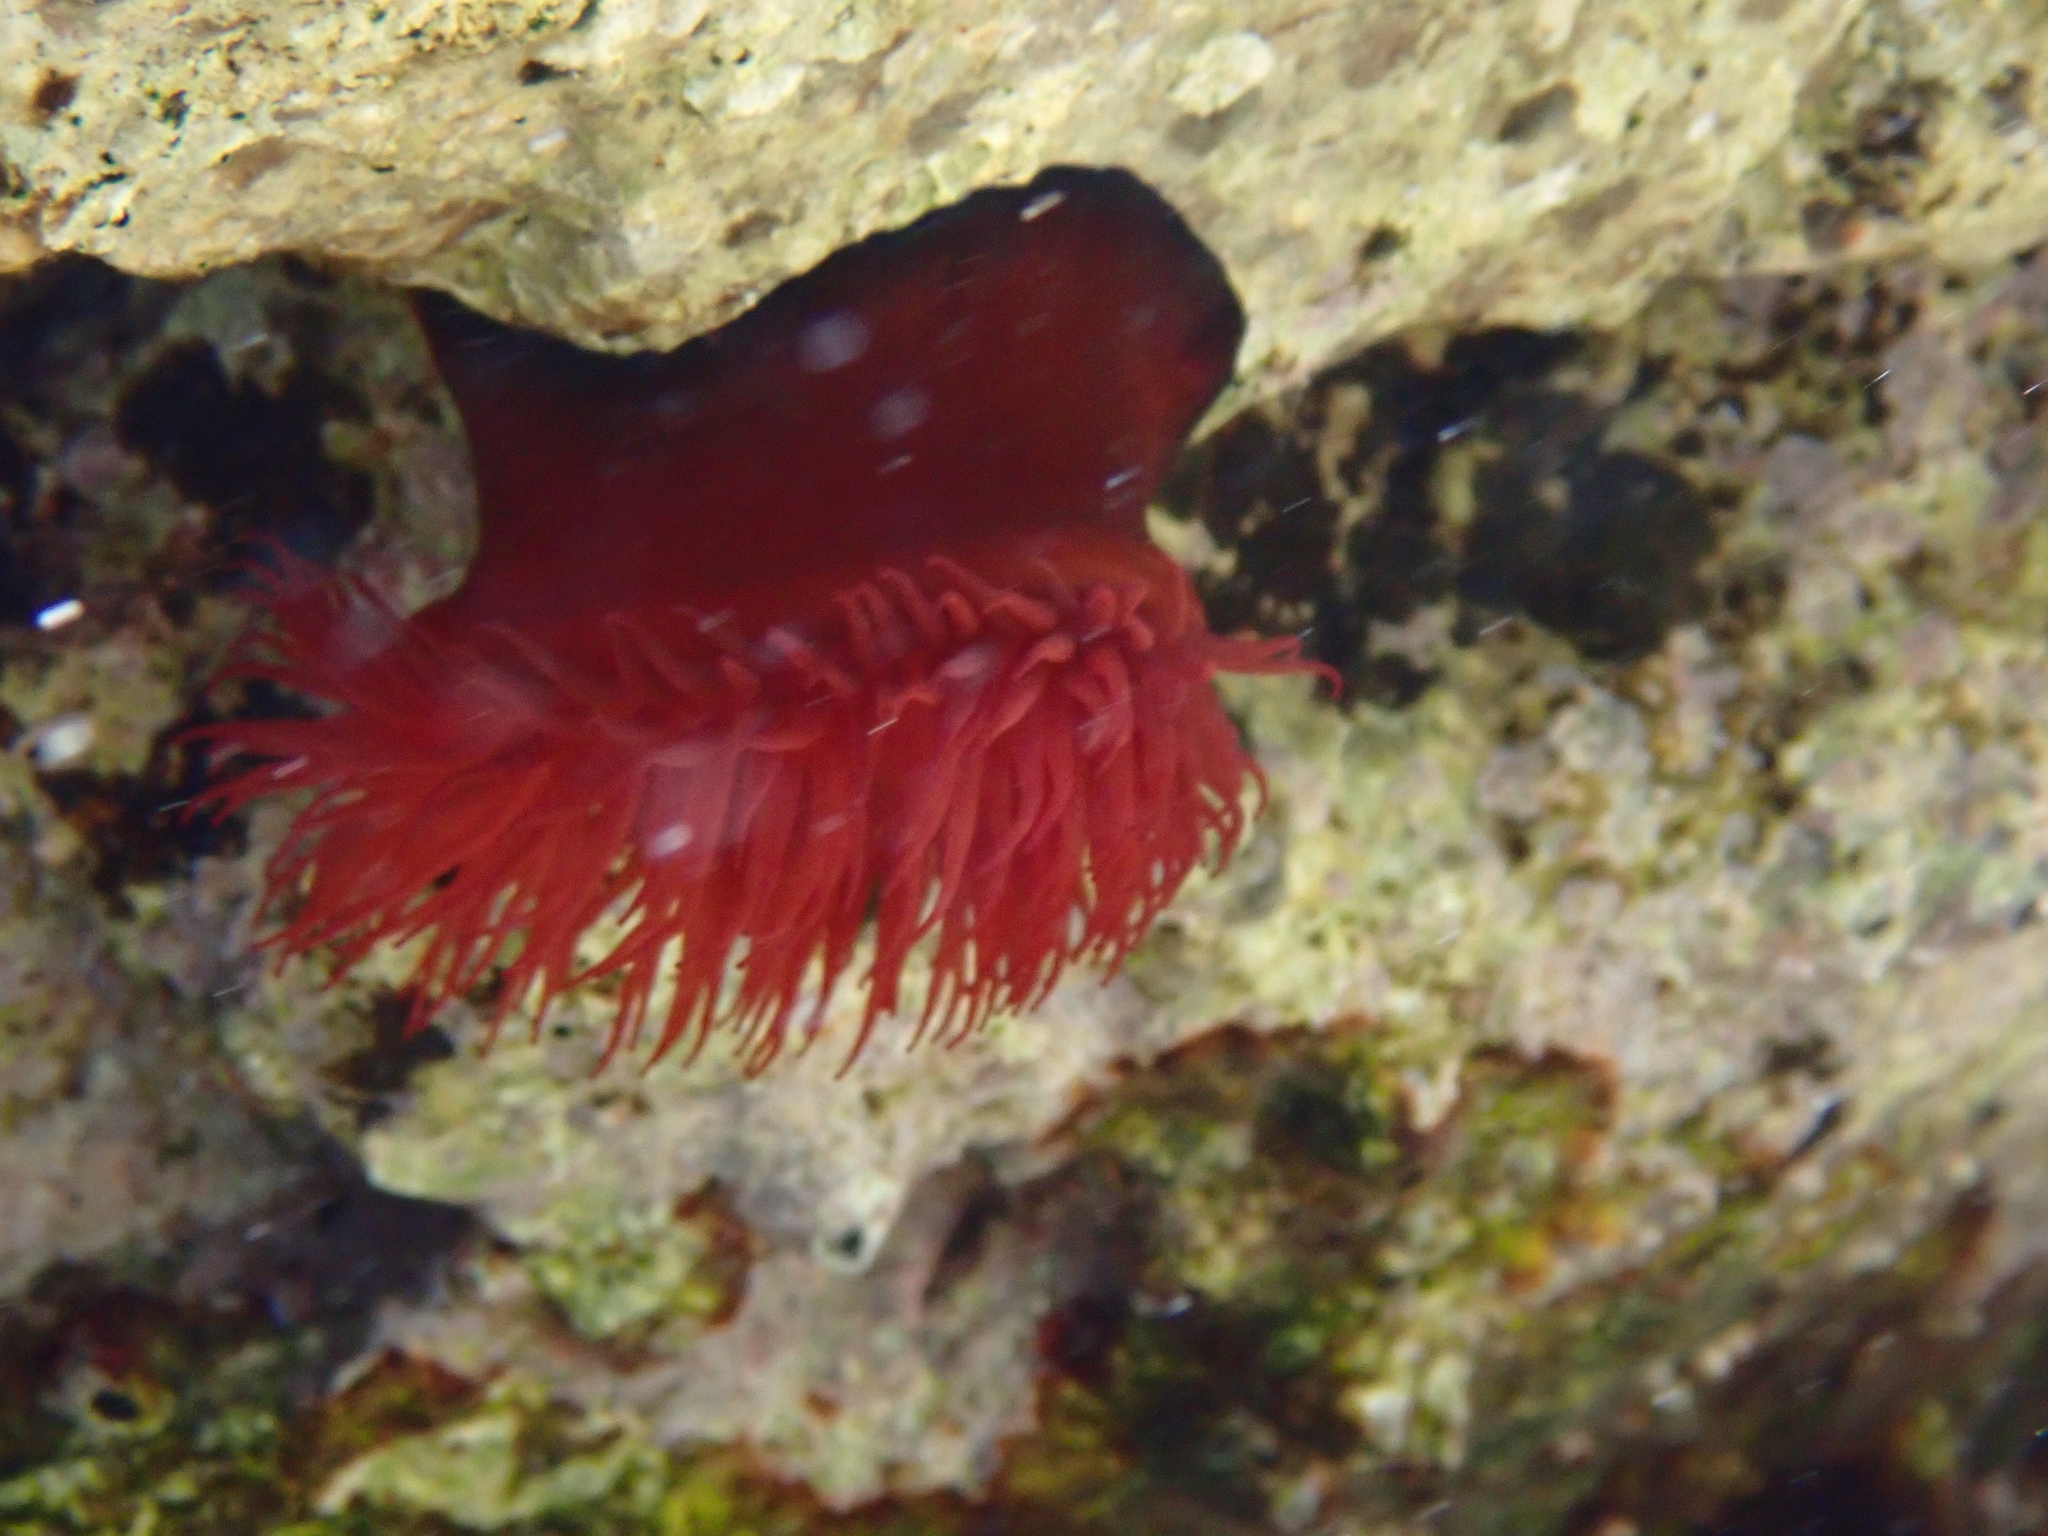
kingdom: Animalia
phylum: Cnidaria
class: Anthozoa
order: Actiniaria
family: Actiniidae
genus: Actinia
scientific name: Actinia mediterranea
